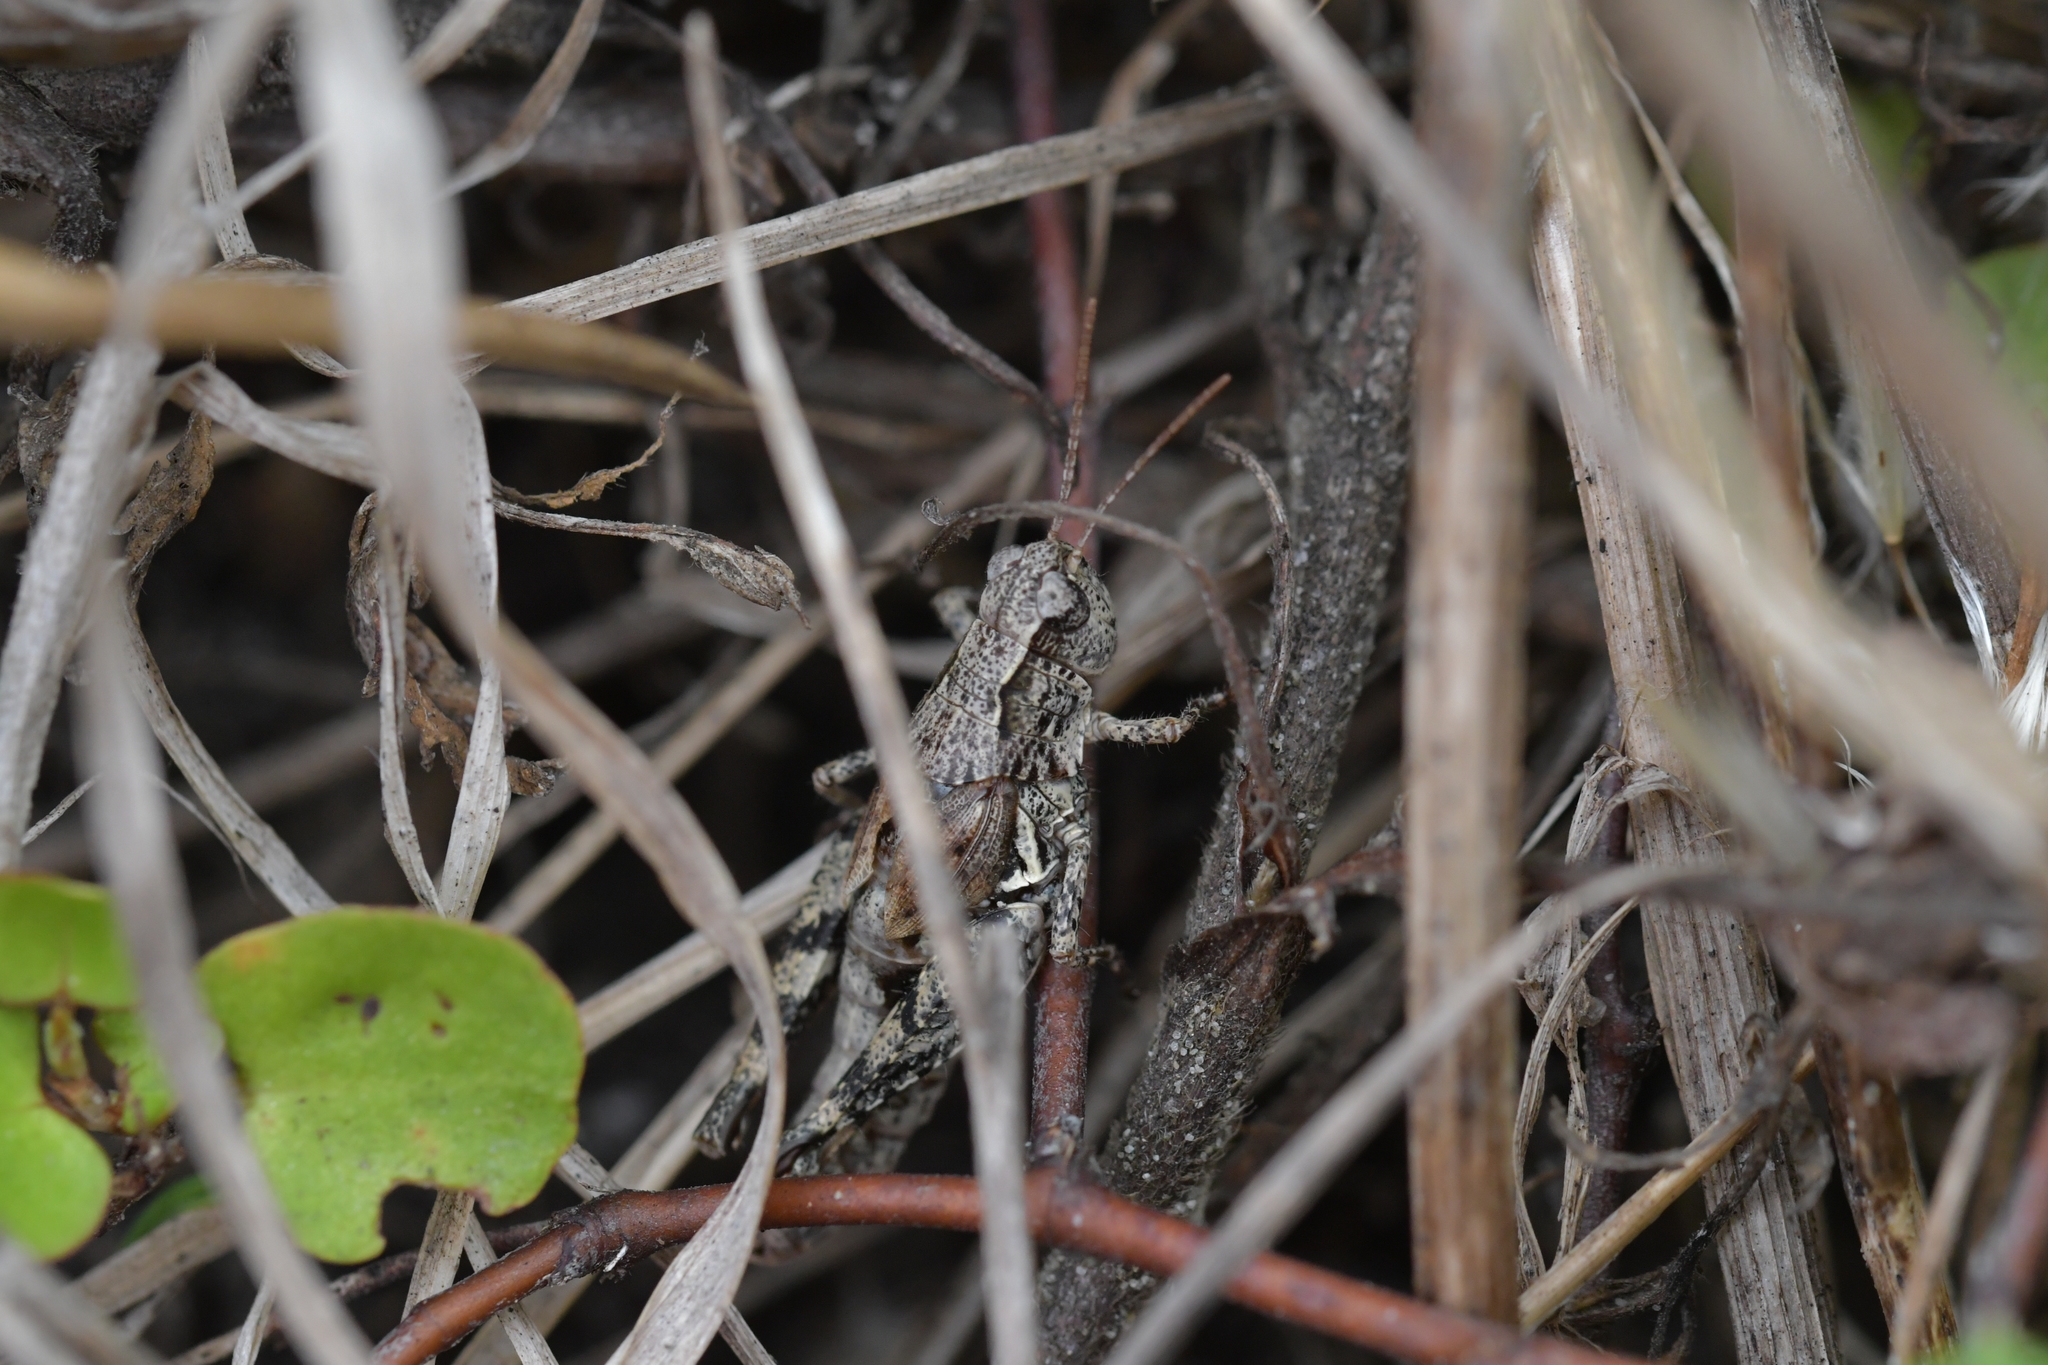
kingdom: Animalia
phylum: Arthropoda
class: Insecta
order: Orthoptera
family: Acrididae
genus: Phaulacridium
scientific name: Phaulacridium marginale
